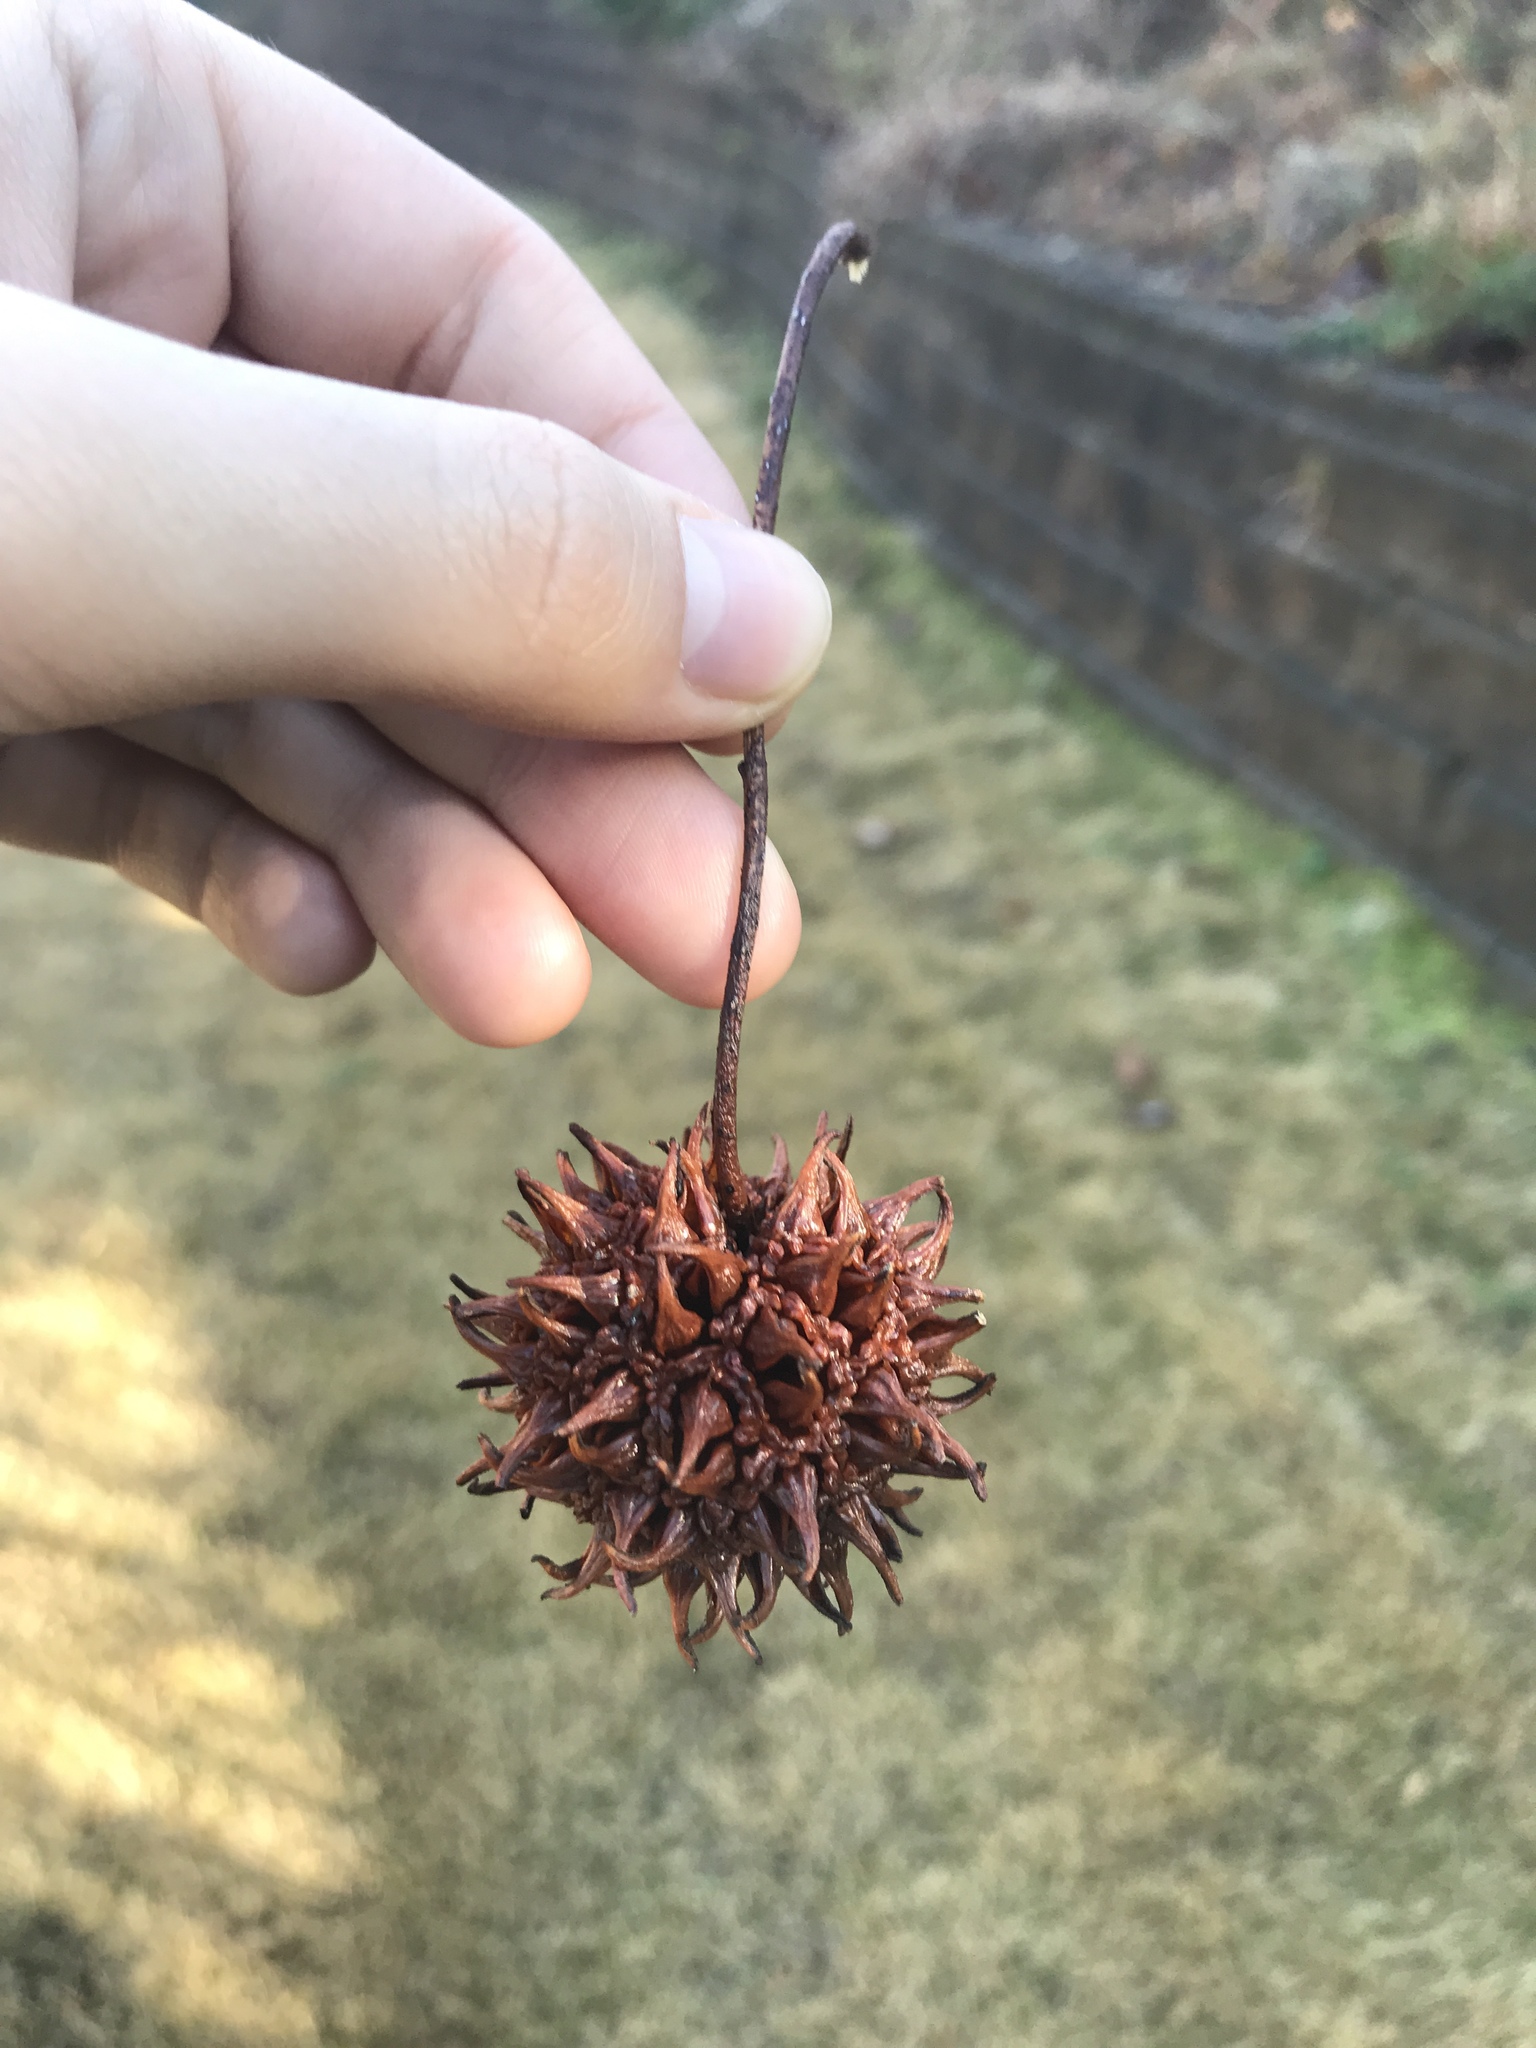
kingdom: Plantae
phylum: Tracheophyta
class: Magnoliopsida
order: Saxifragales
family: Altingiaceae
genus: Liquidambar
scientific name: Liquidambar styraciflua
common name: Sweet gum
